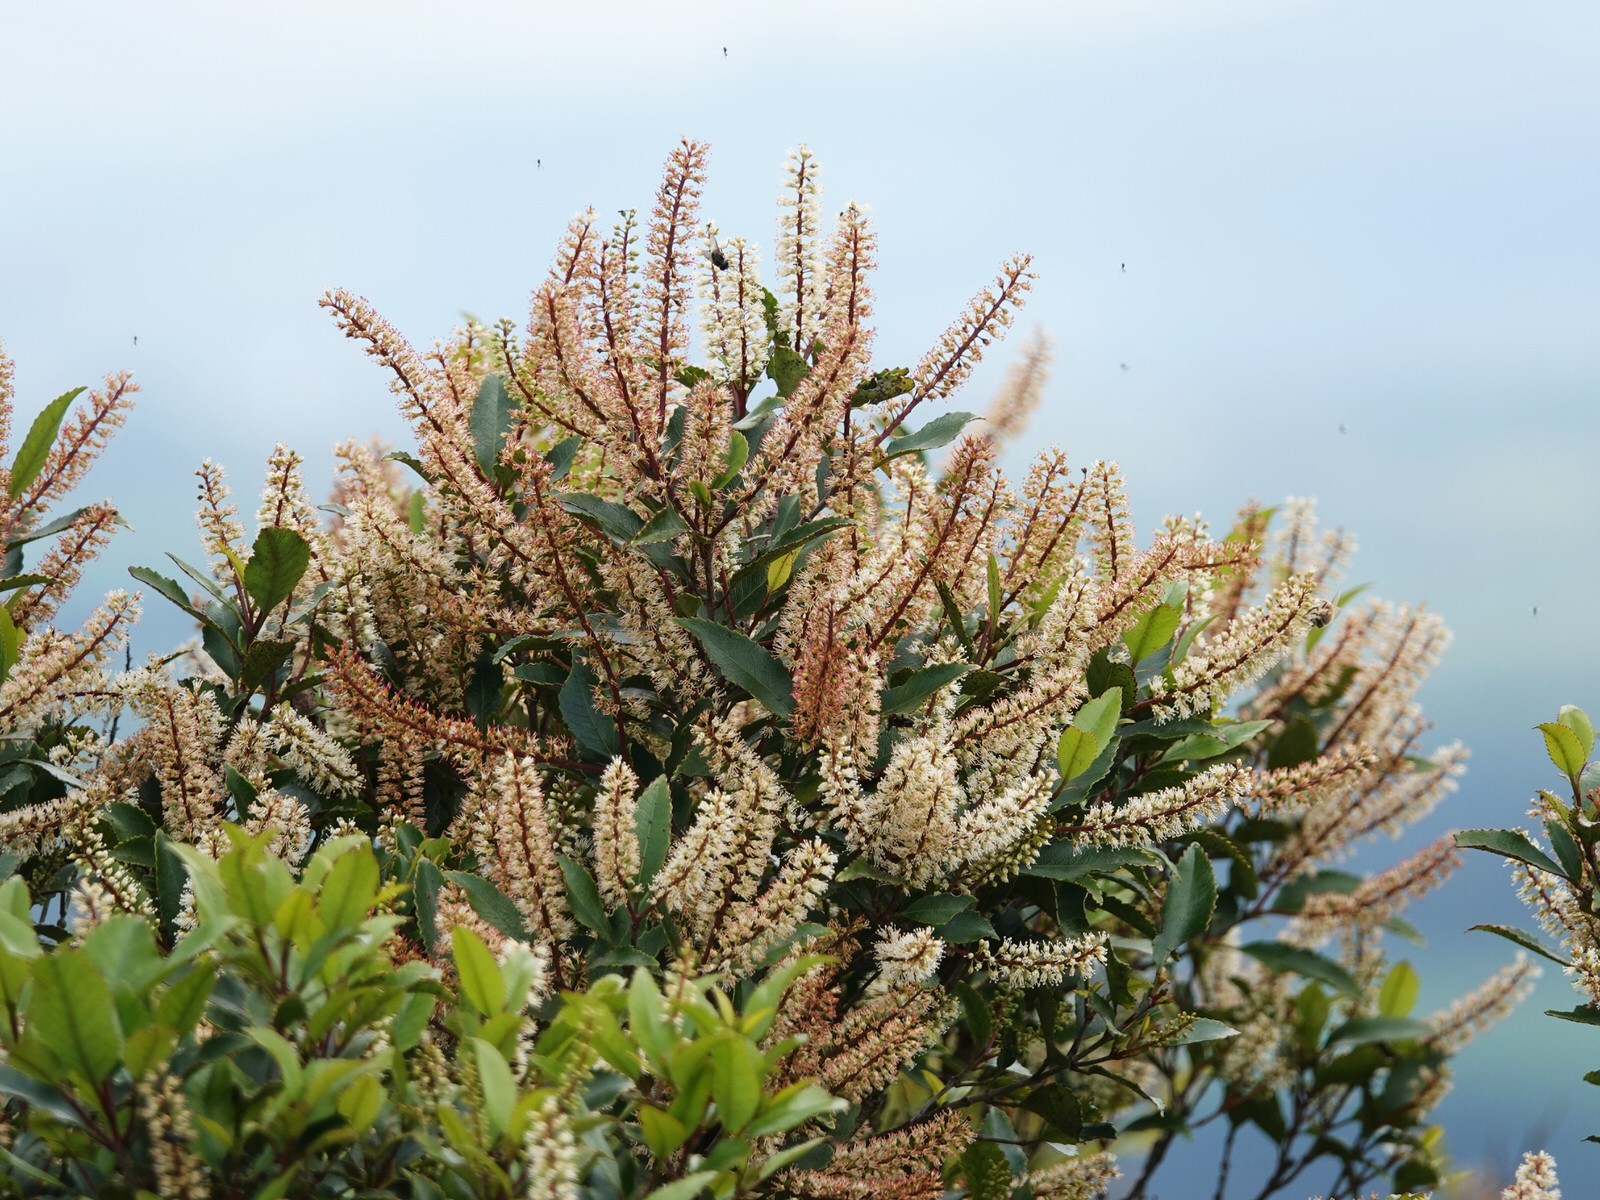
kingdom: Plantae
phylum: Tracheophyta
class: Magnoliopsida
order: Oxalidales
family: Cunoniaceae
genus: Pterophylla
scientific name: Pterophylla racemosa
